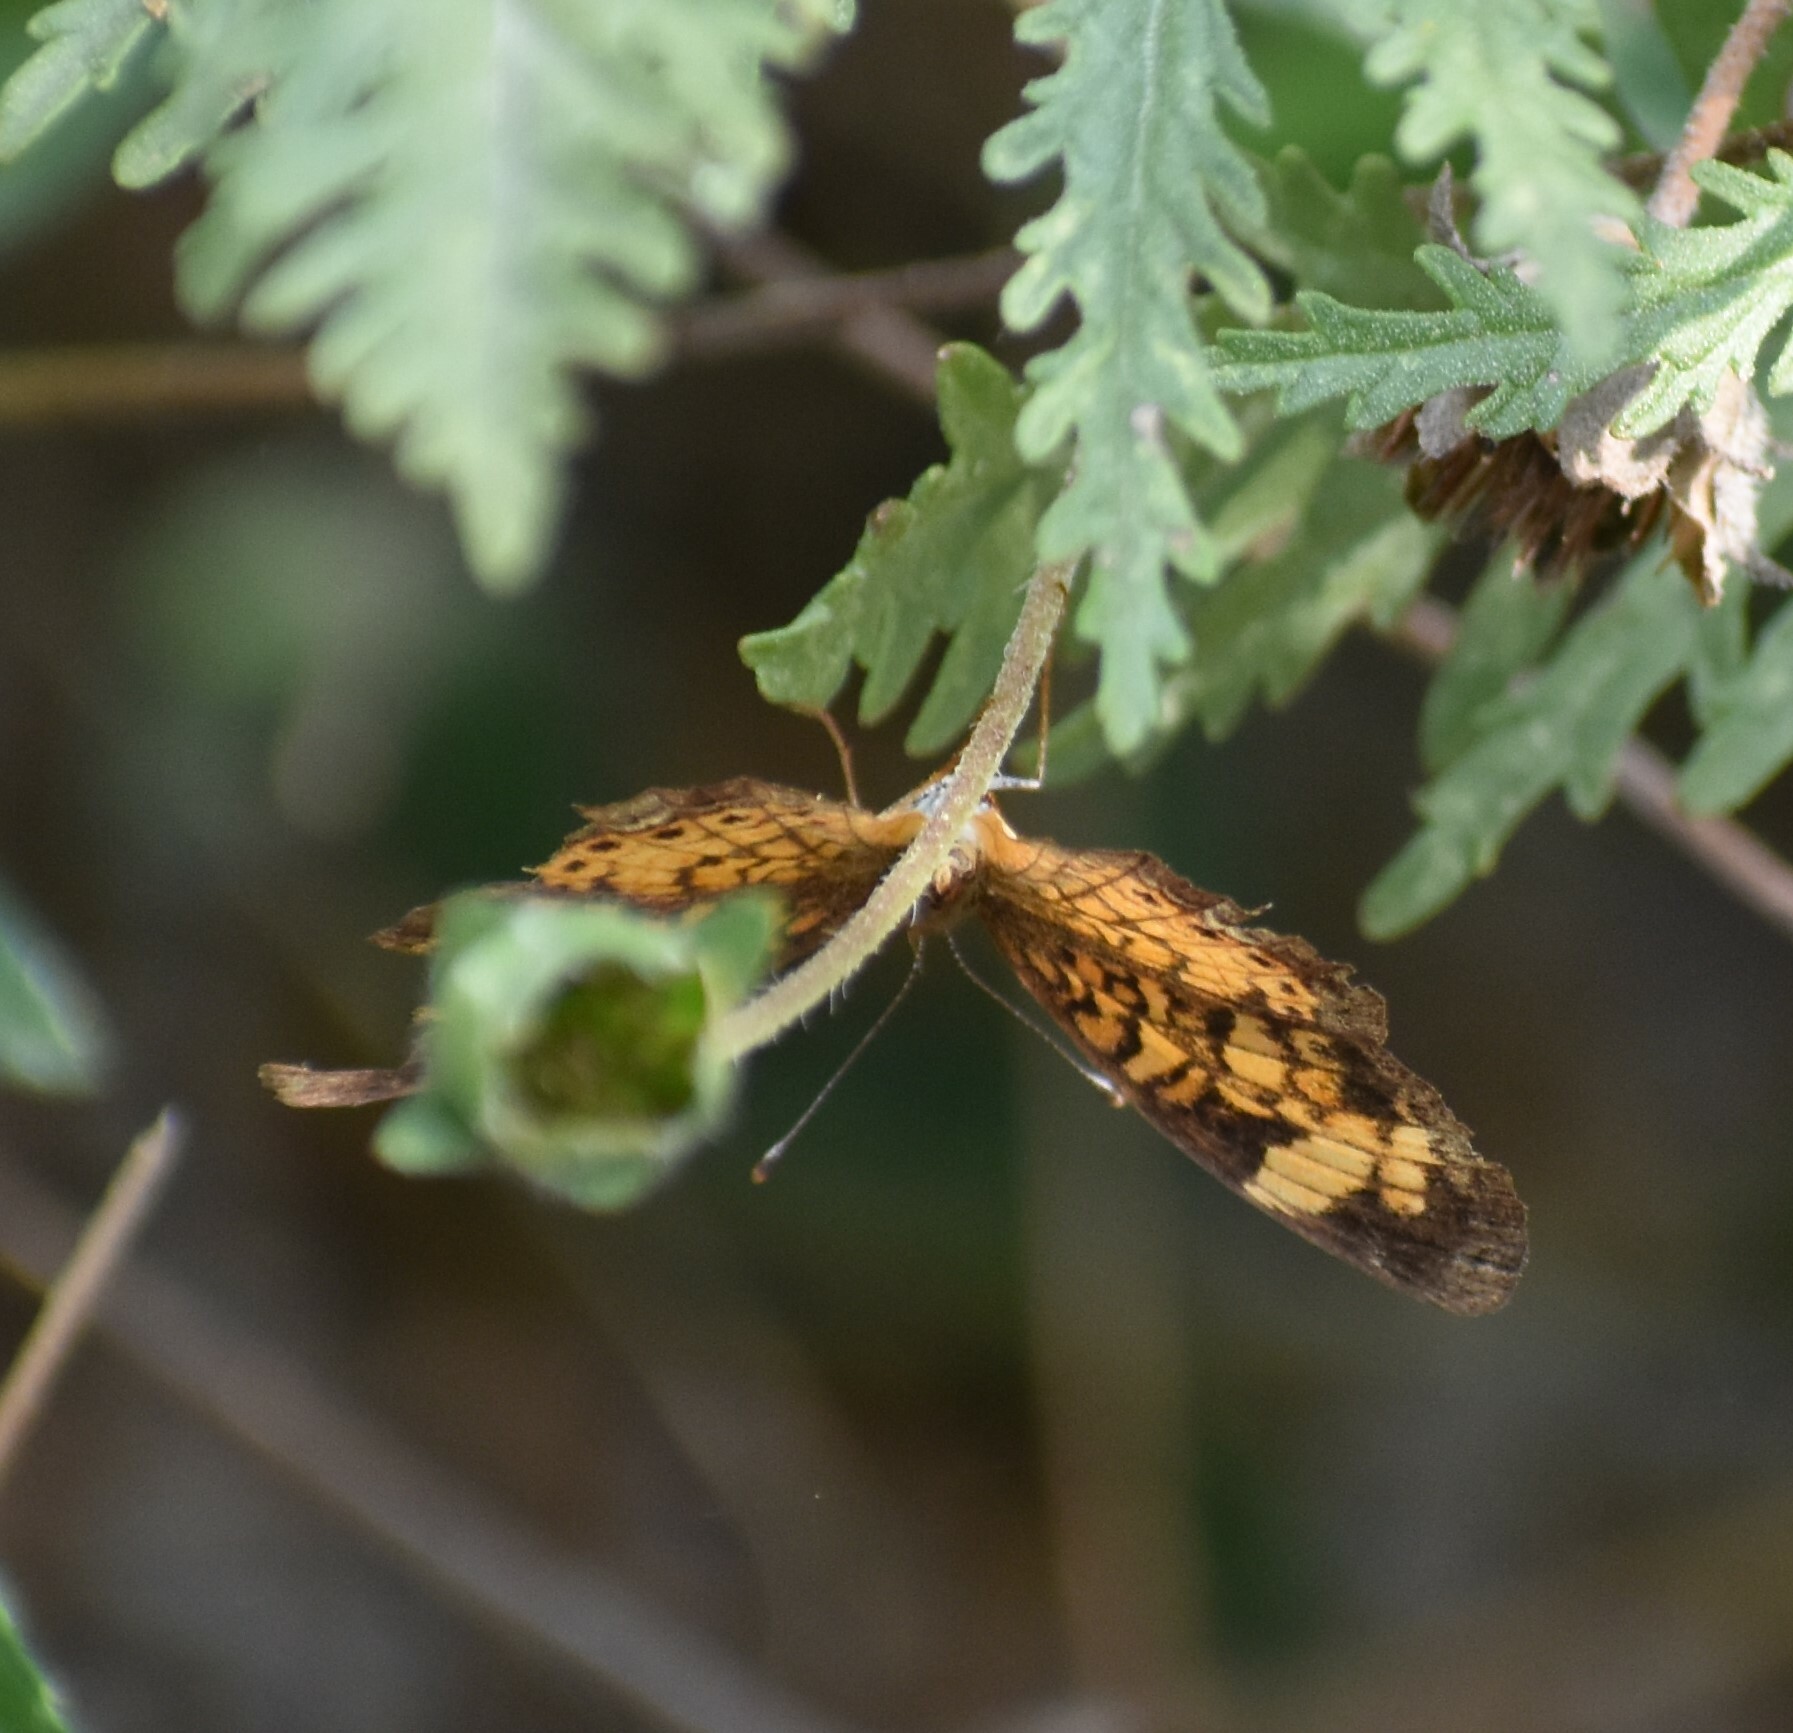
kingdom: Animalia
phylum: Arthropoda
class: Insecta
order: Lepidoptera
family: Nymphalidae
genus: Phyciodes
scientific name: Phyciodes tharos
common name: Pearl crescent
